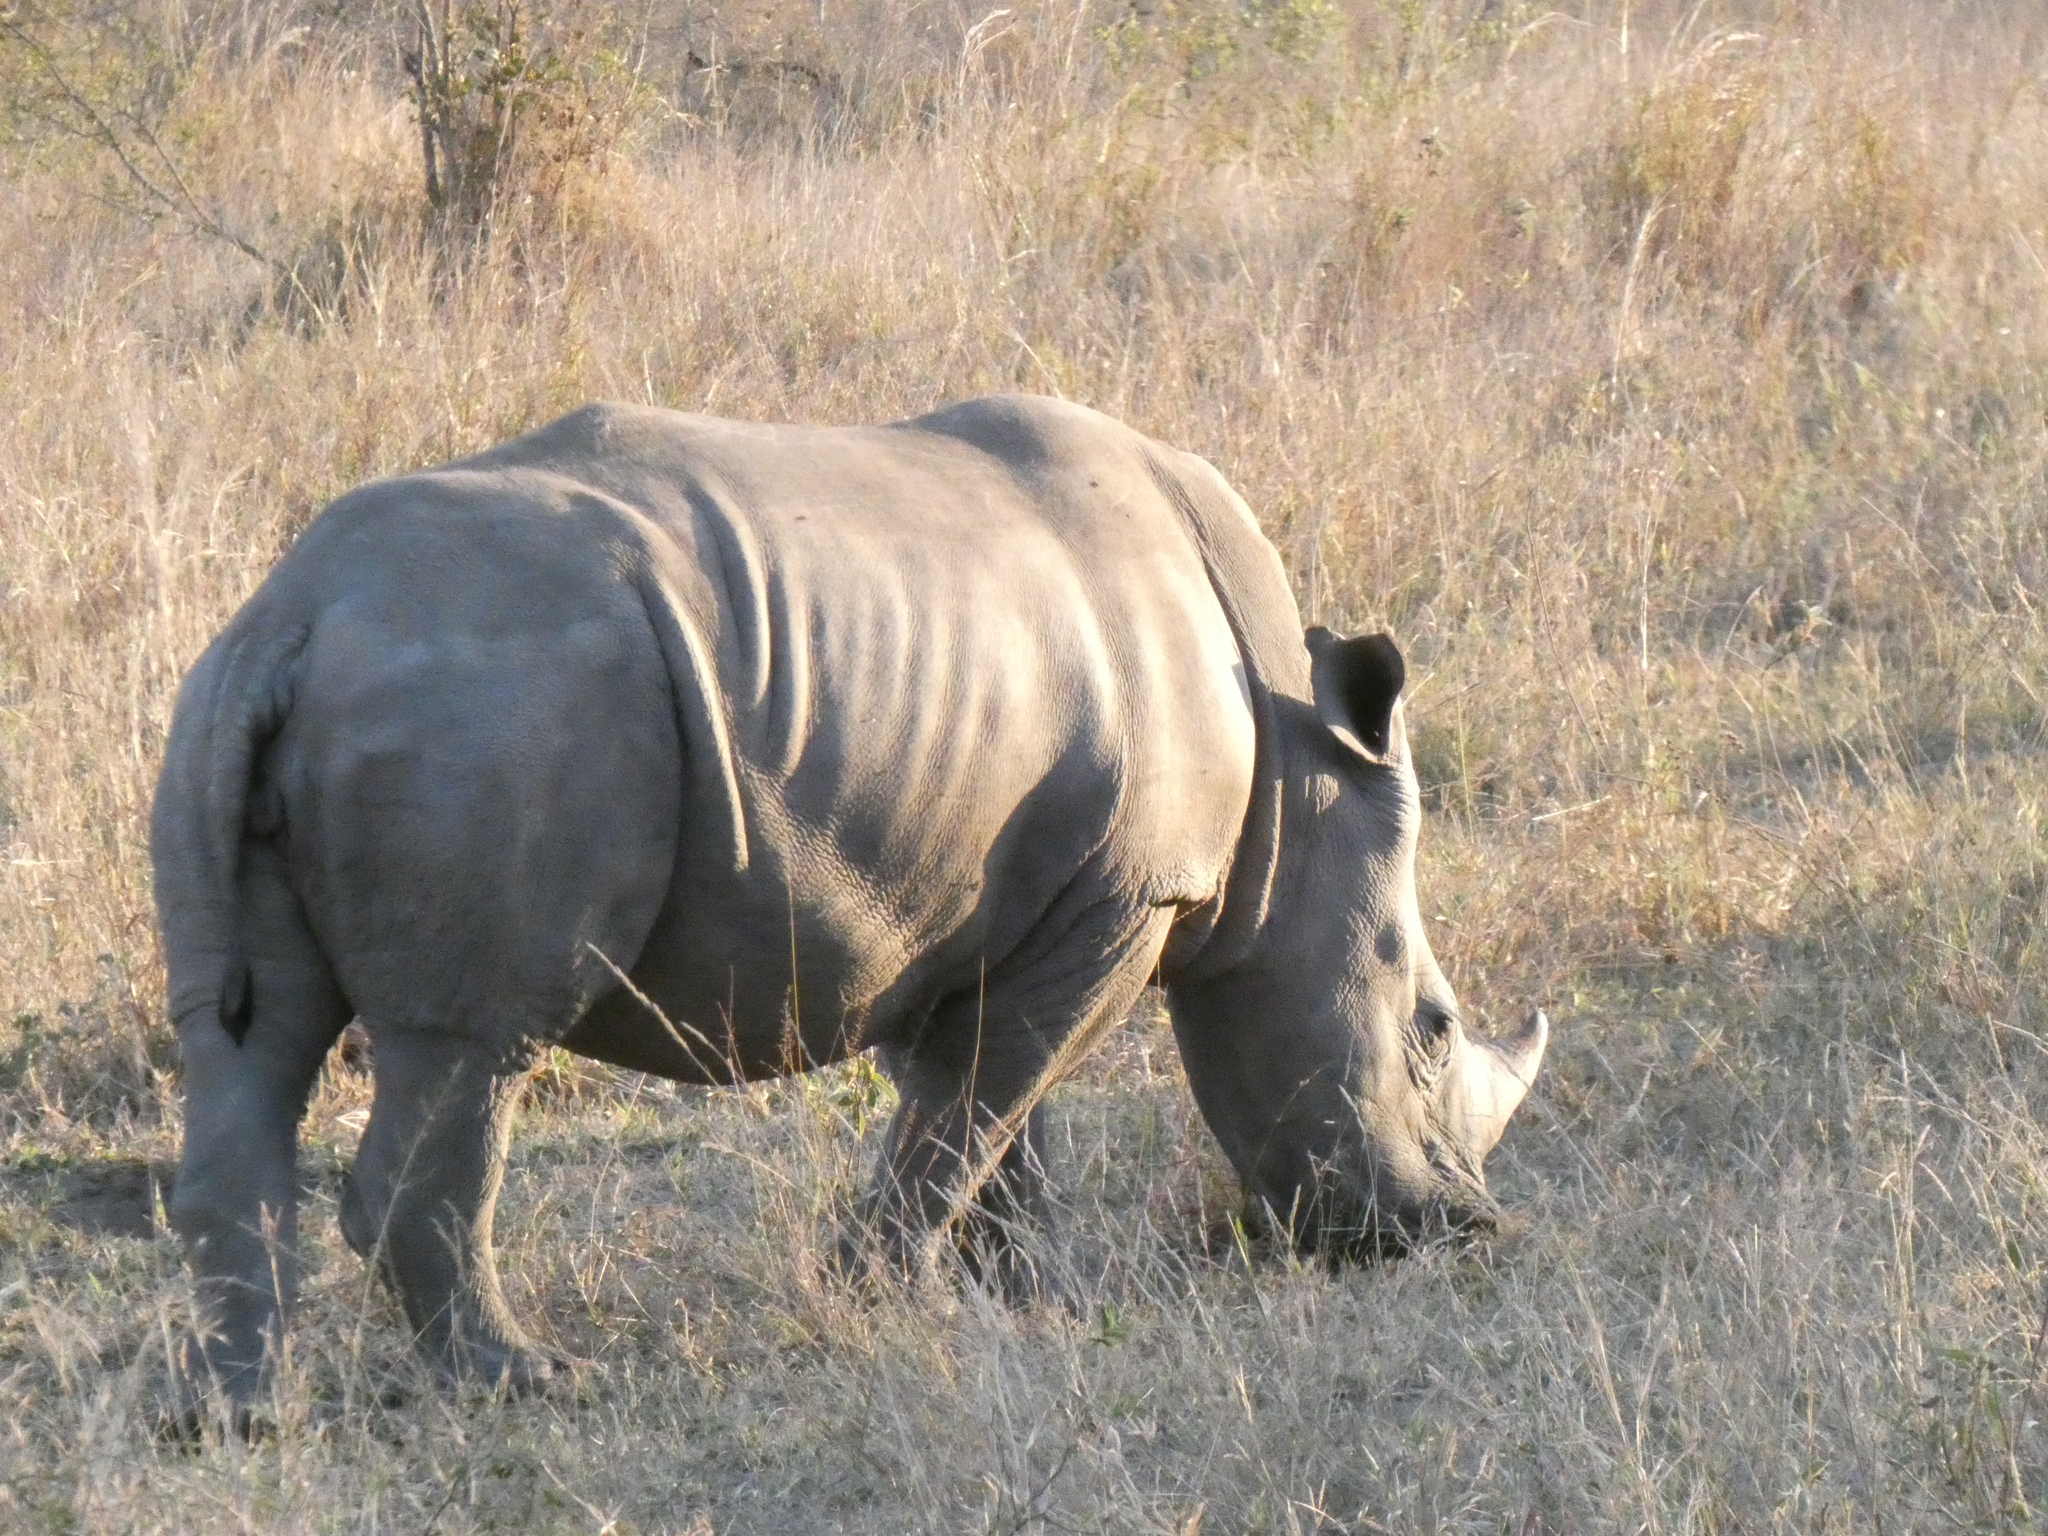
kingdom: Animalia
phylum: Chordata
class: Mammalia
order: Perissodactyla
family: Rhinocerotidae
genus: Ceratotherium
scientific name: Ceratotherium simum
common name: White rhinoceros
